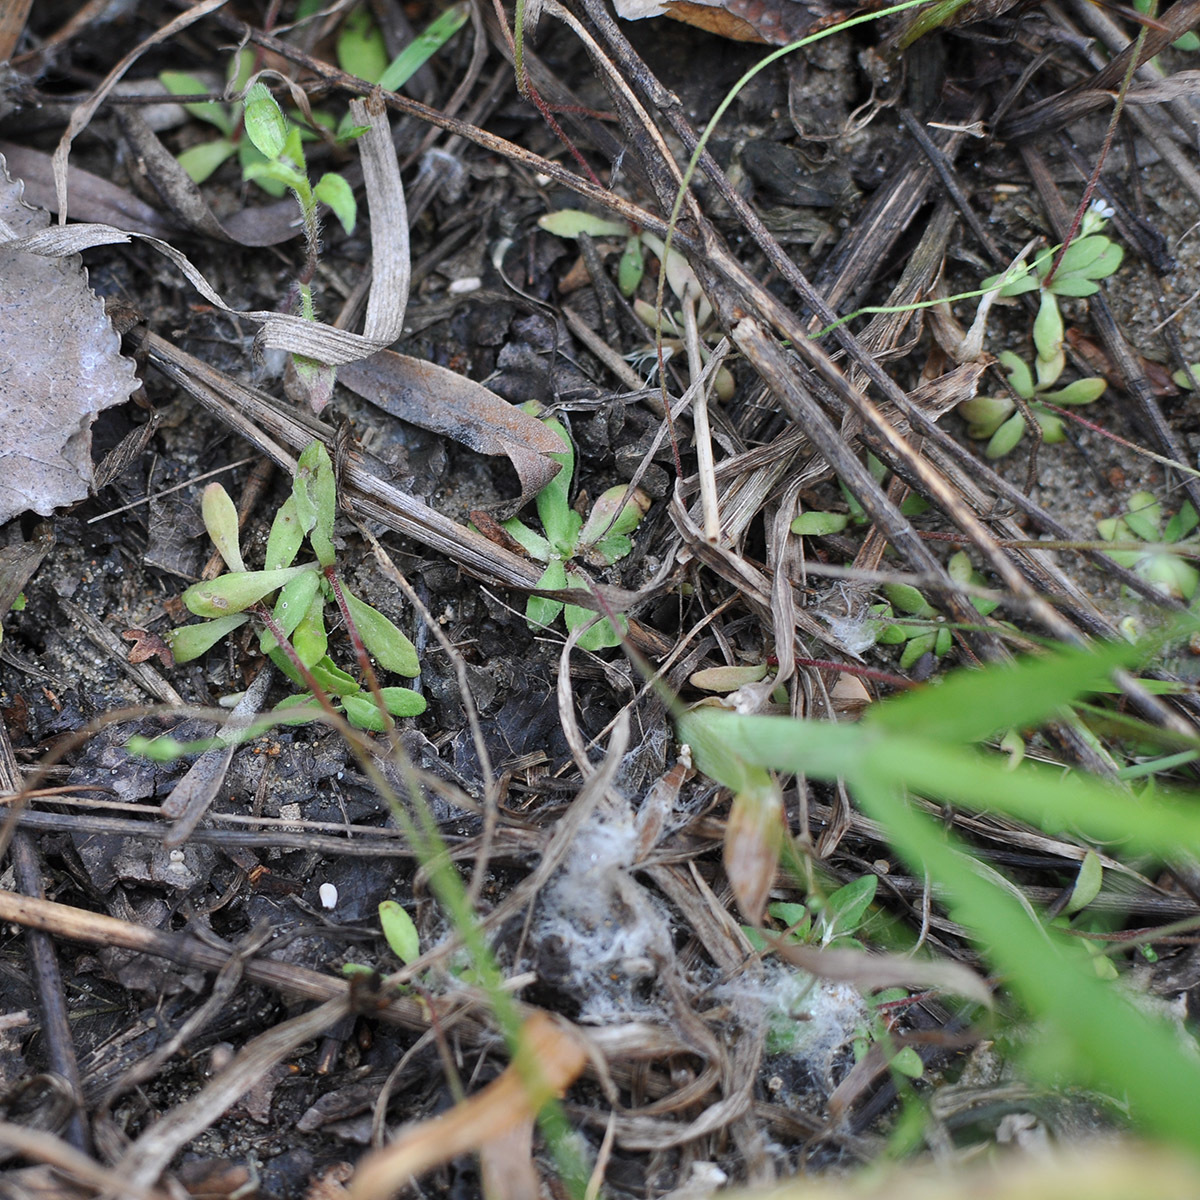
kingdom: Plantae
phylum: Tracheophyta
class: Magnoliopsida
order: Ericales
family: Primulaceae
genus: Androsace
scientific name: Androsace filiformis
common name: Filiform rock jasmine
